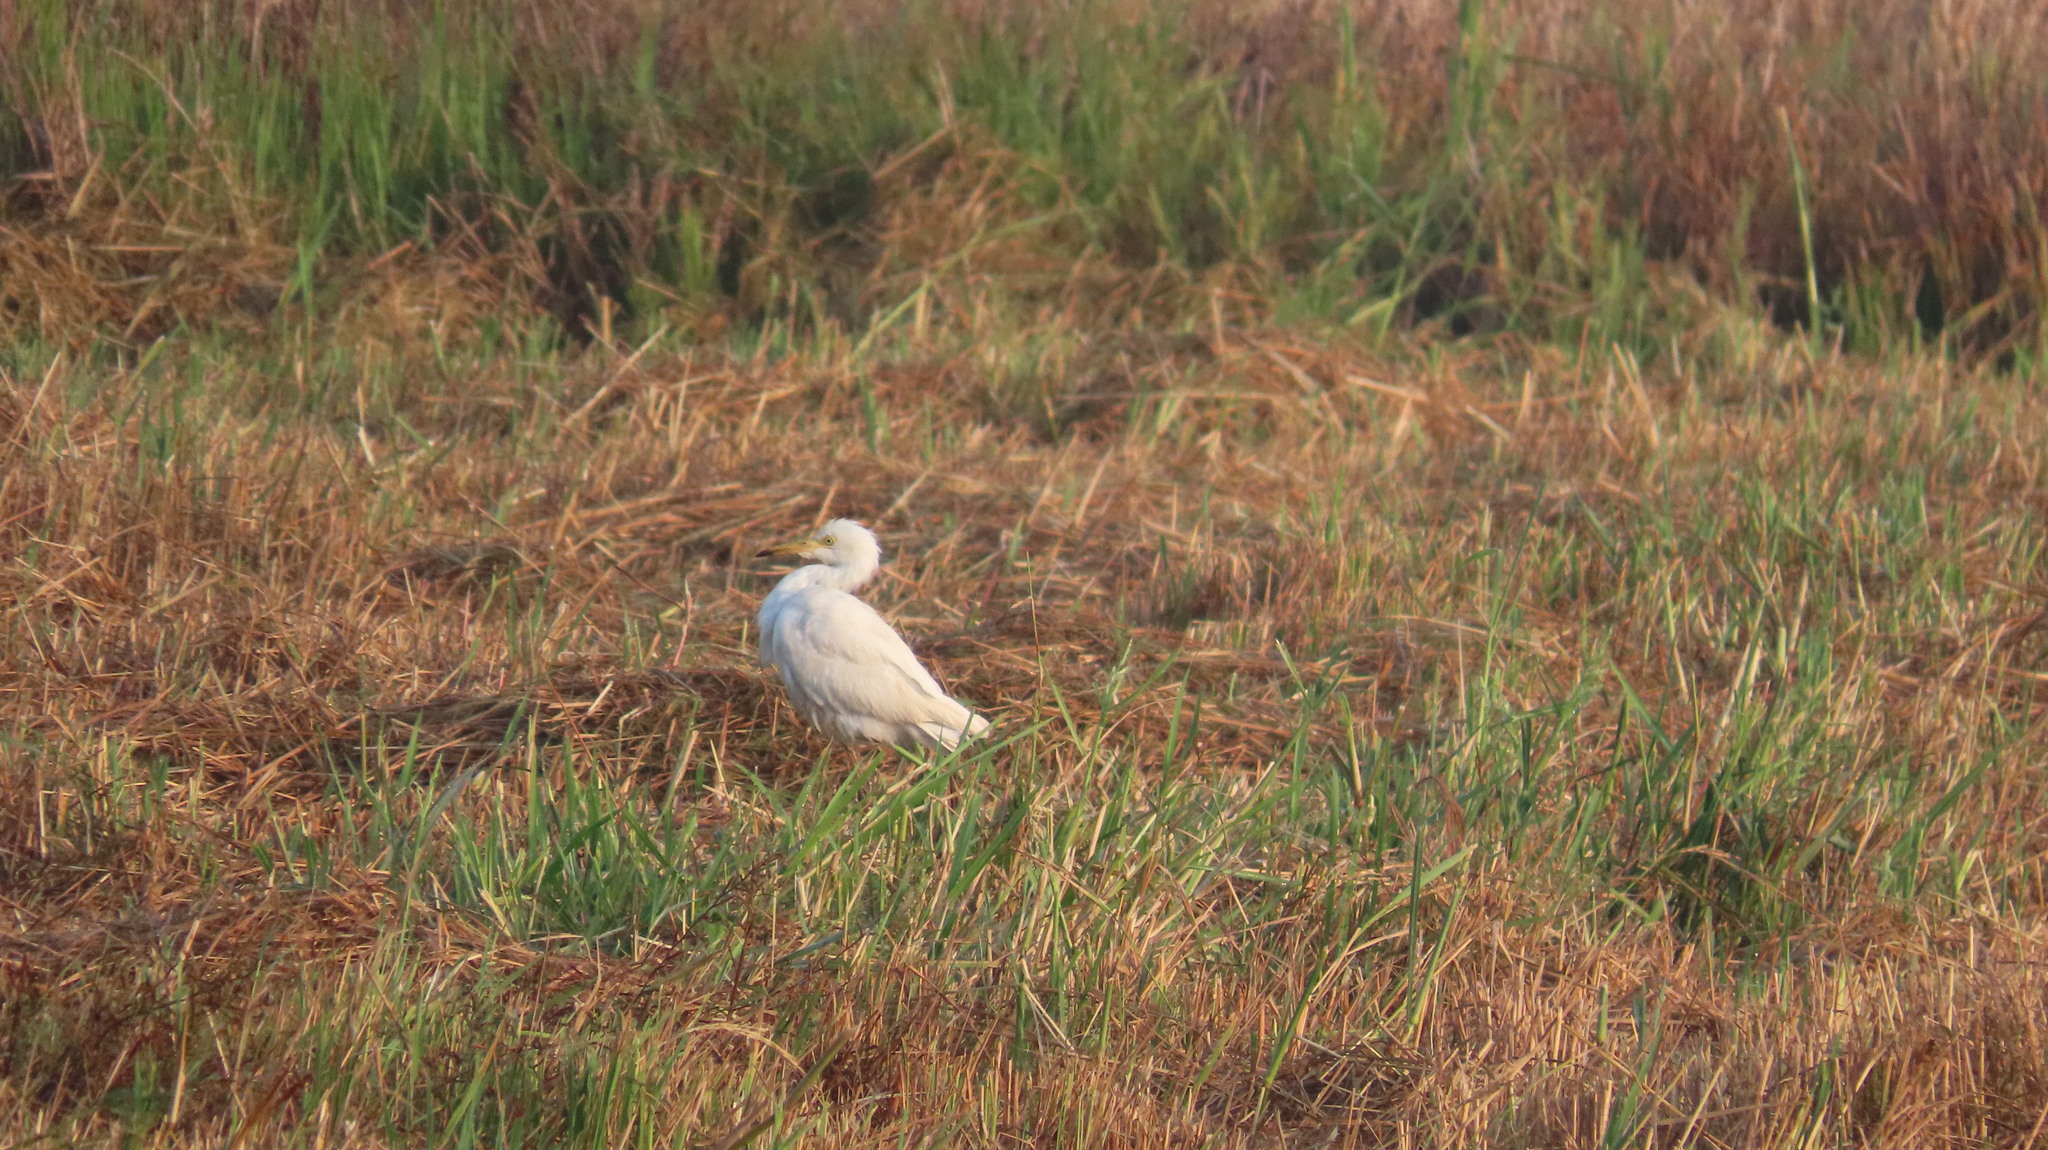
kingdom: Animalia
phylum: Chordata
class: Aves
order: Pelecaniformes
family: Ardeidae
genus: Bubulcus
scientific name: Bubulcus coromandus
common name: Eastern cattle egret
